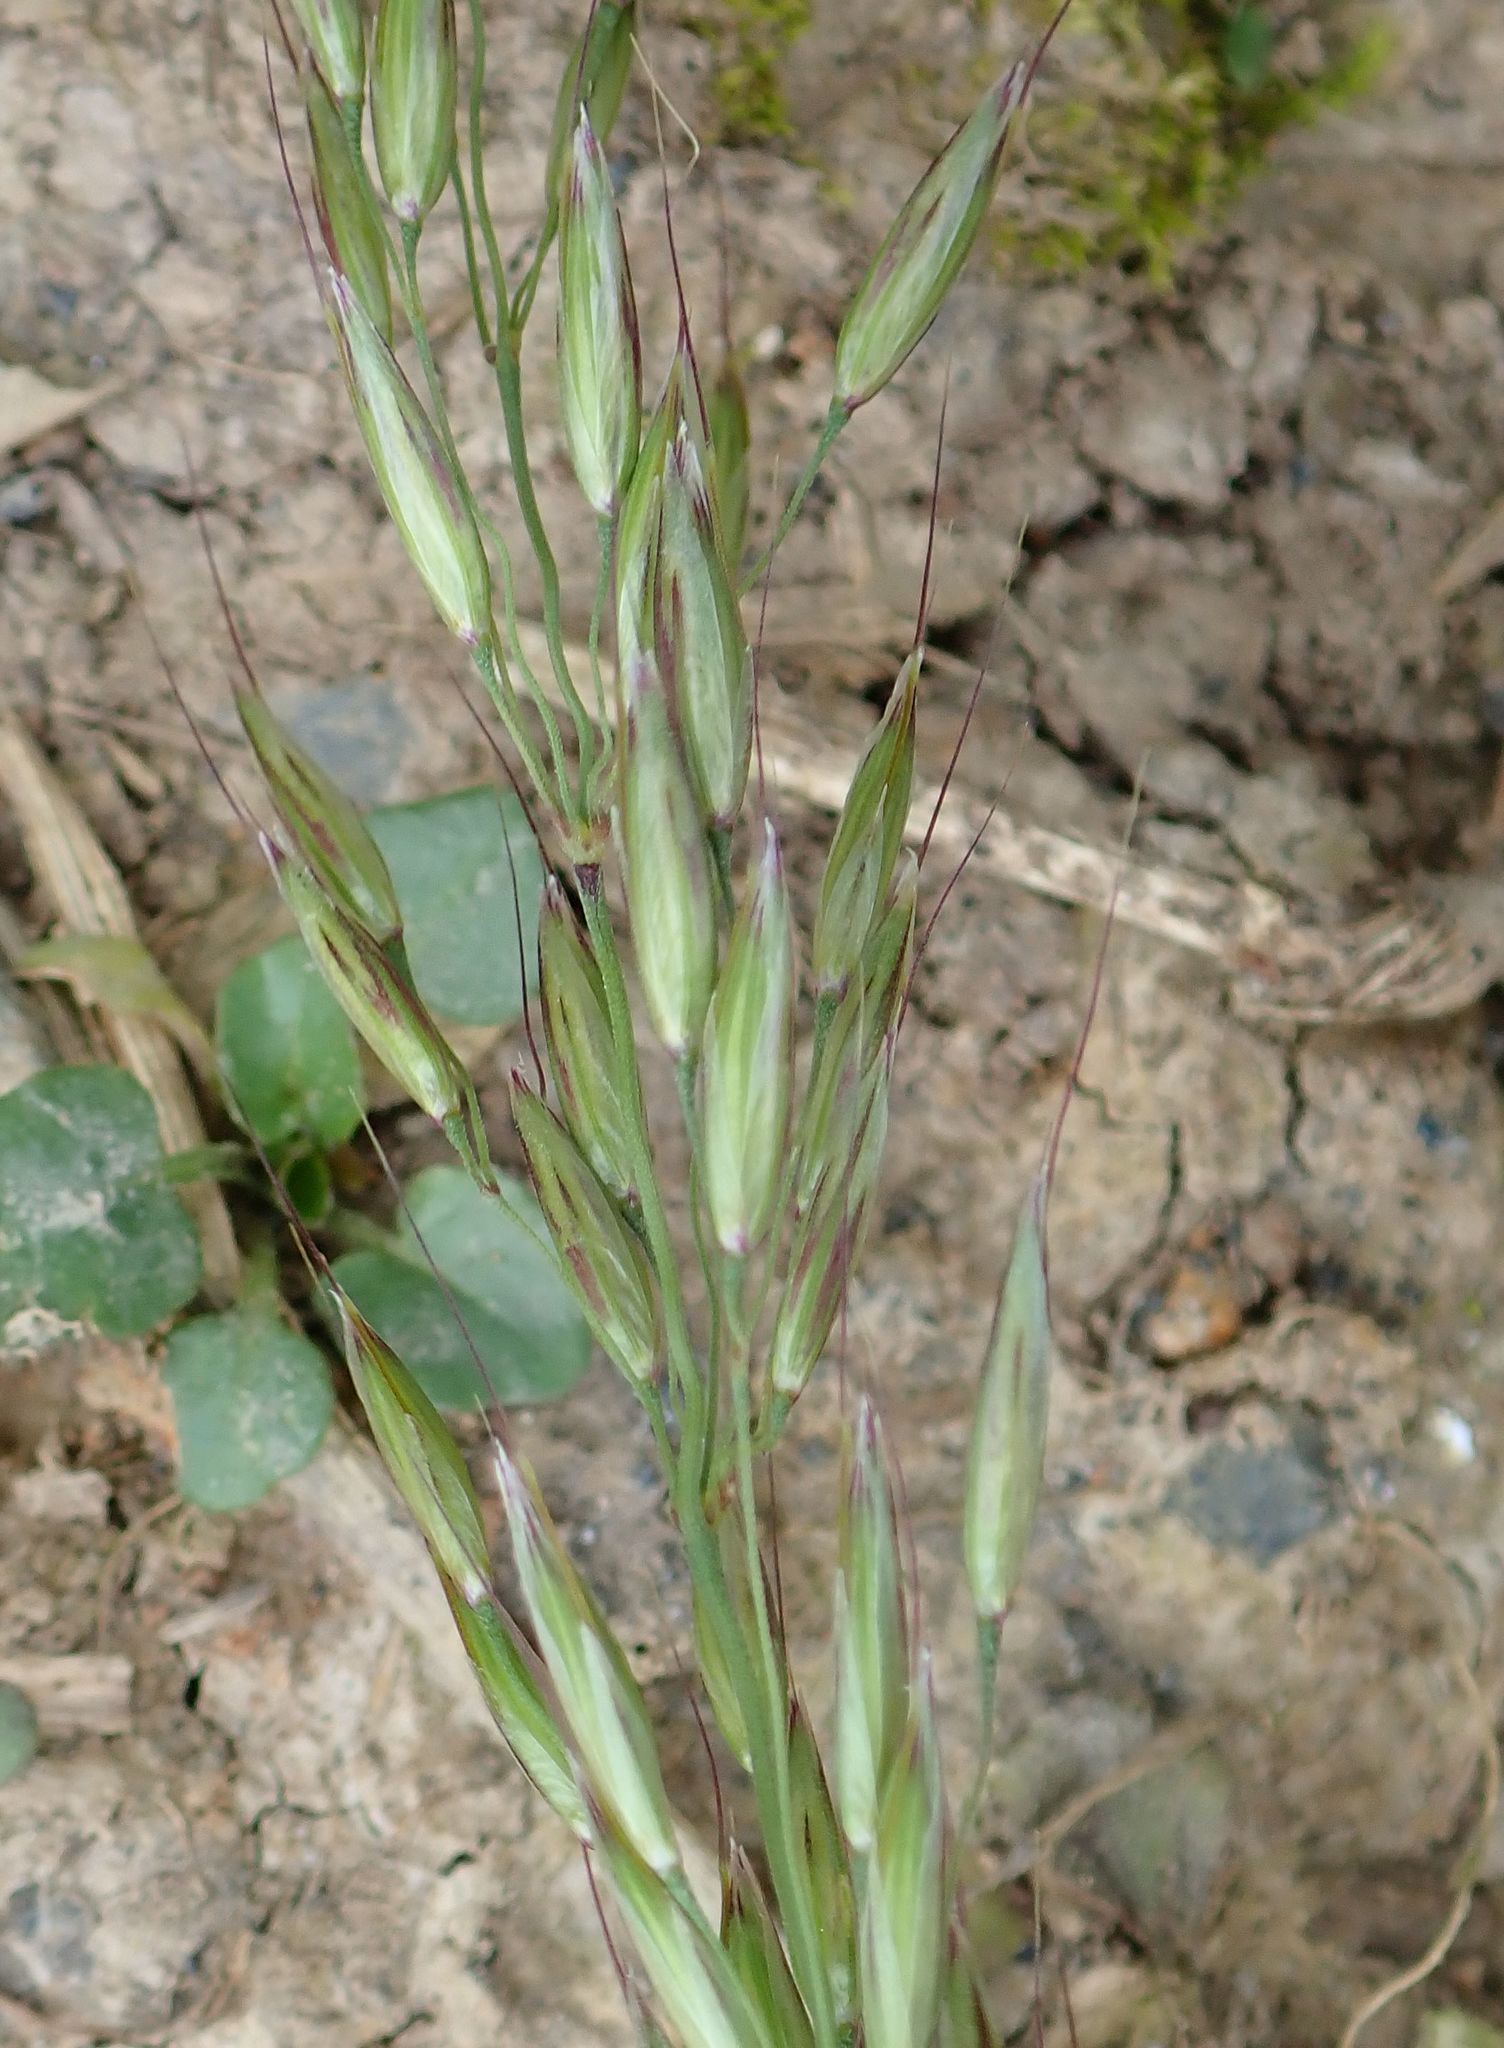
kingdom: Plantae
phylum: Tracheophyta
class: Liliopsida
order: Poales
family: Poaceae
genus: Arrhenatherum
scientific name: Arrhenatherum elatius
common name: Tall oatgrass
